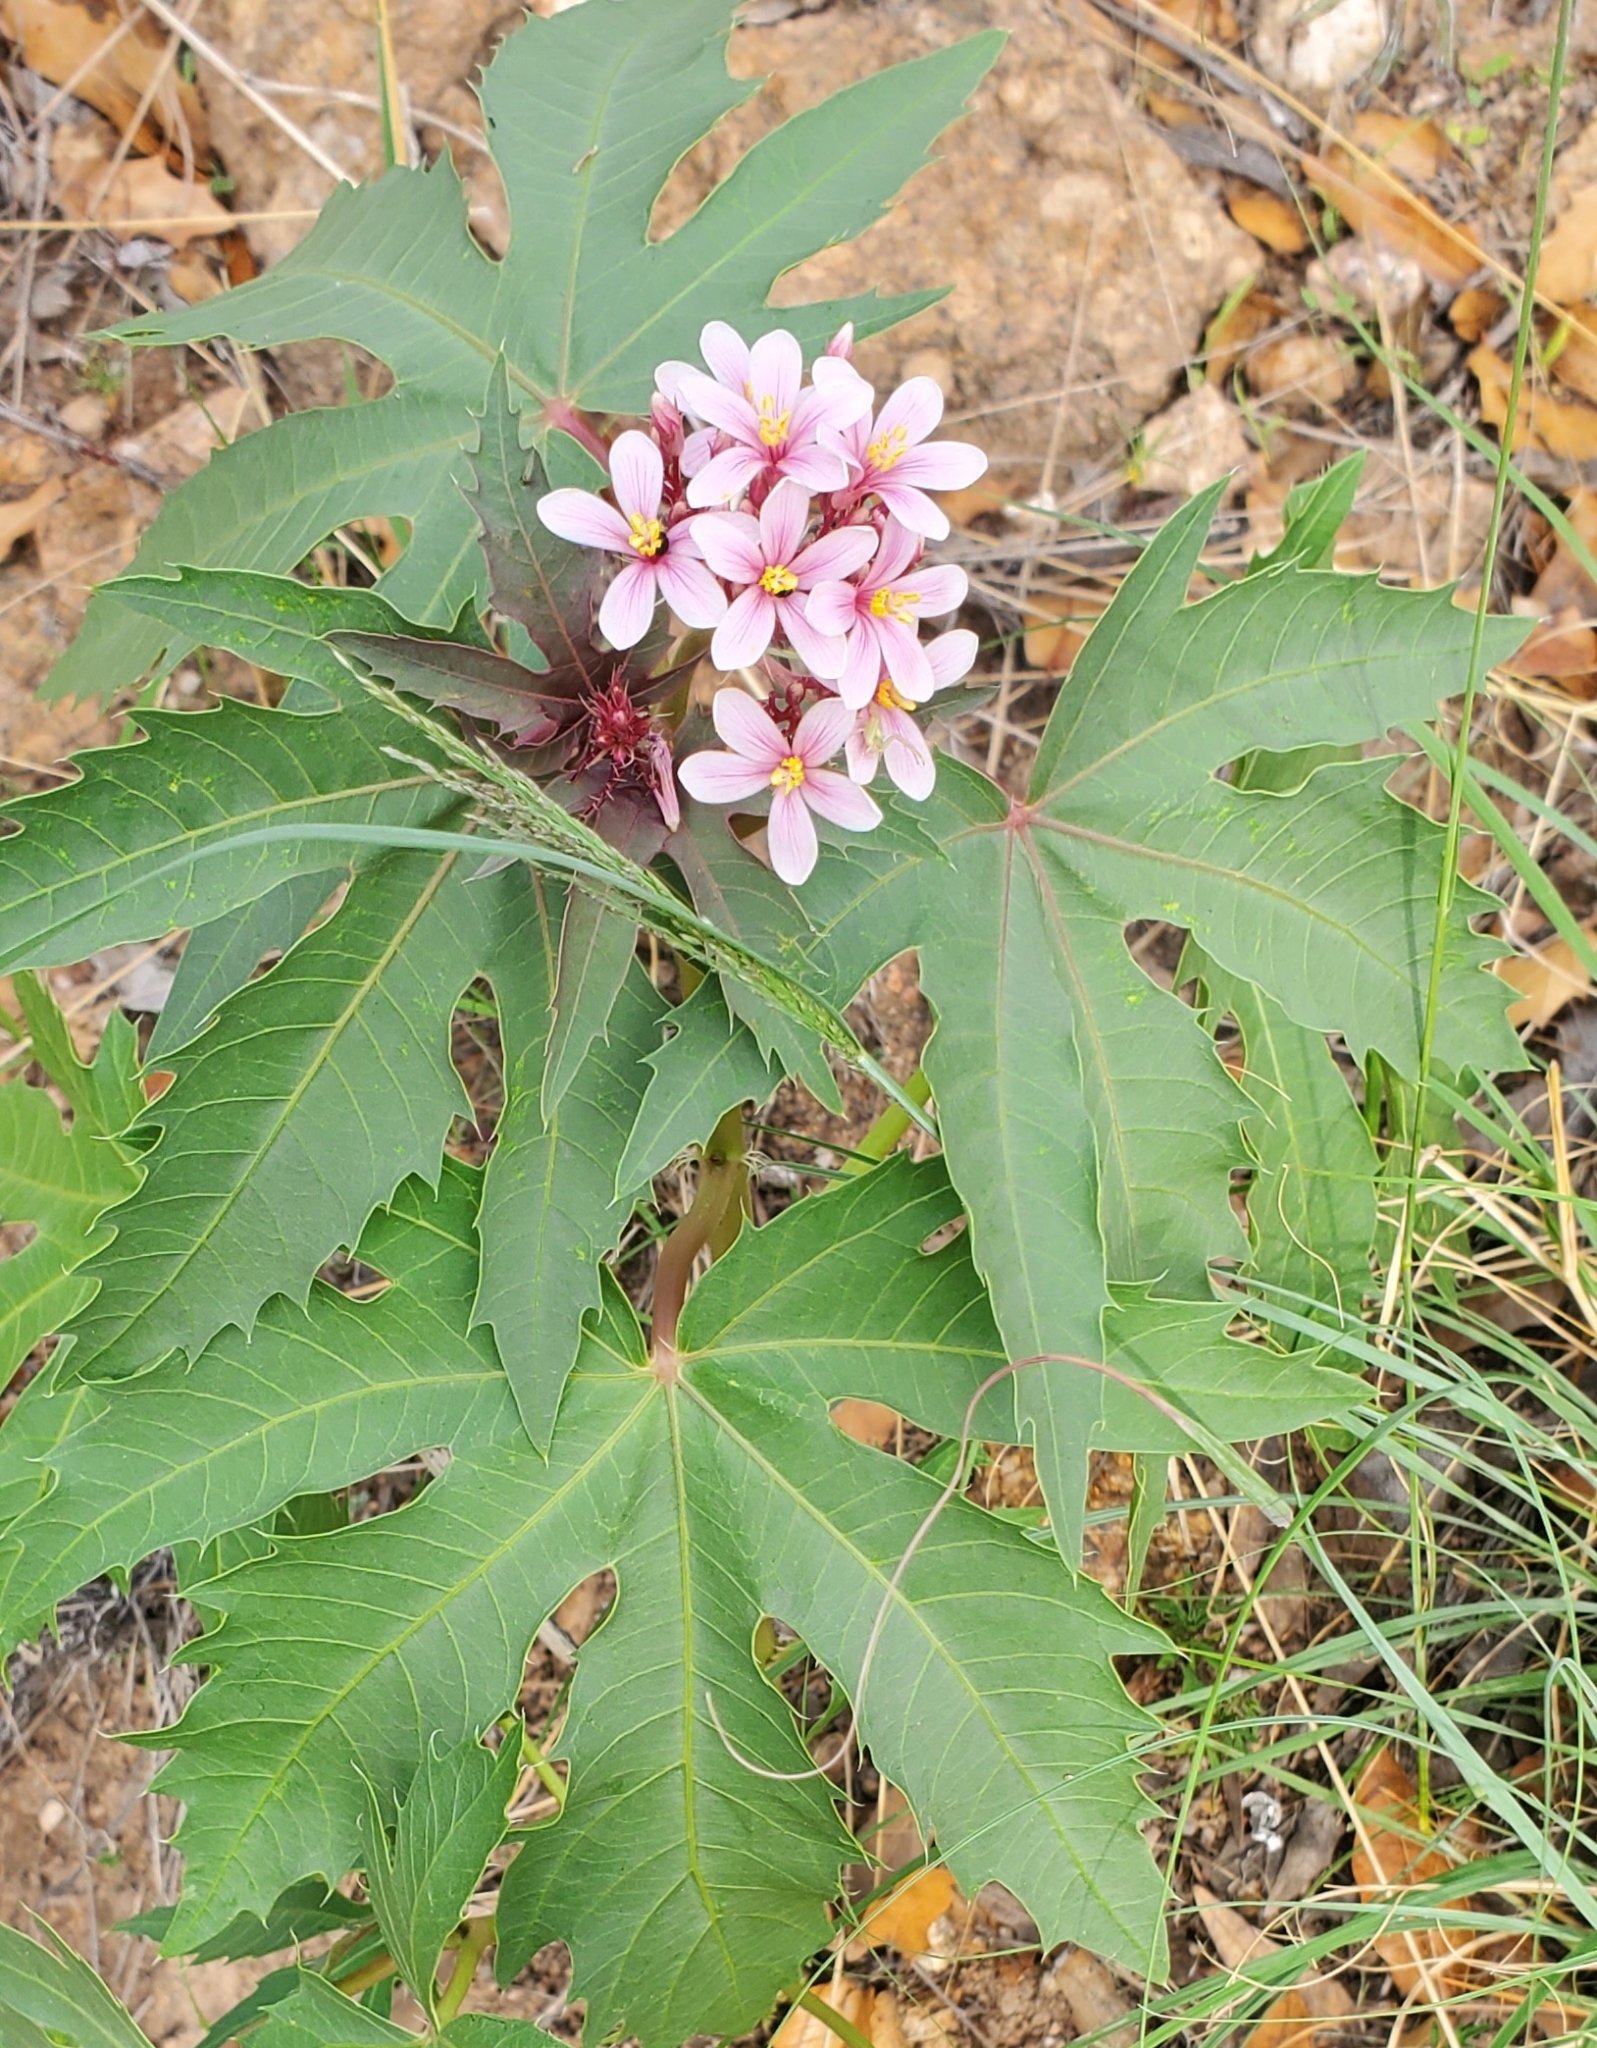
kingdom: Plantae
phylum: Tracheophyta
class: Magnoliopsida
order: Malpighiales
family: Euphorbiaceae
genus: Jatropha
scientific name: Jatropha macrorhiza
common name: Ragged nettlespurge
